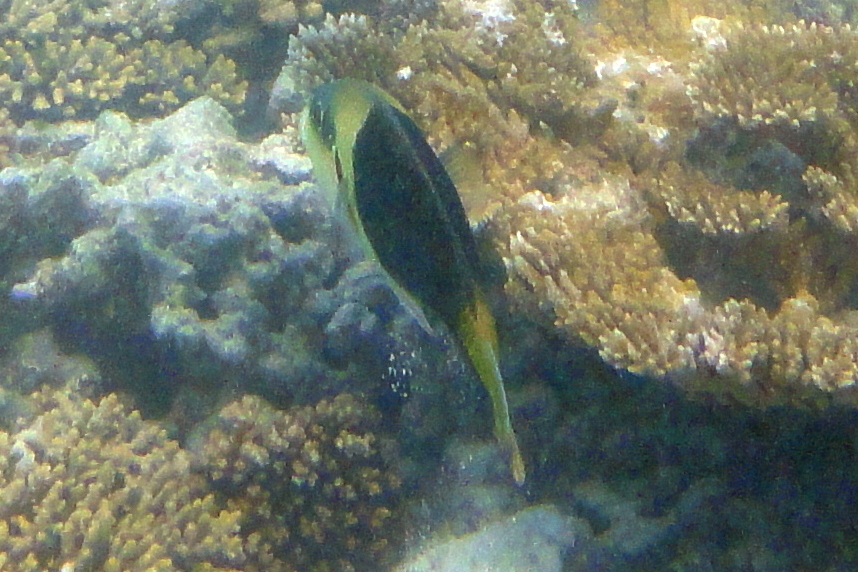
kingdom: Animalia
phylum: Chordata
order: Perciformes
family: Labridae
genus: Hemigymnus
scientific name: Hemigymnus melapterus
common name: Blackeye thicklip
